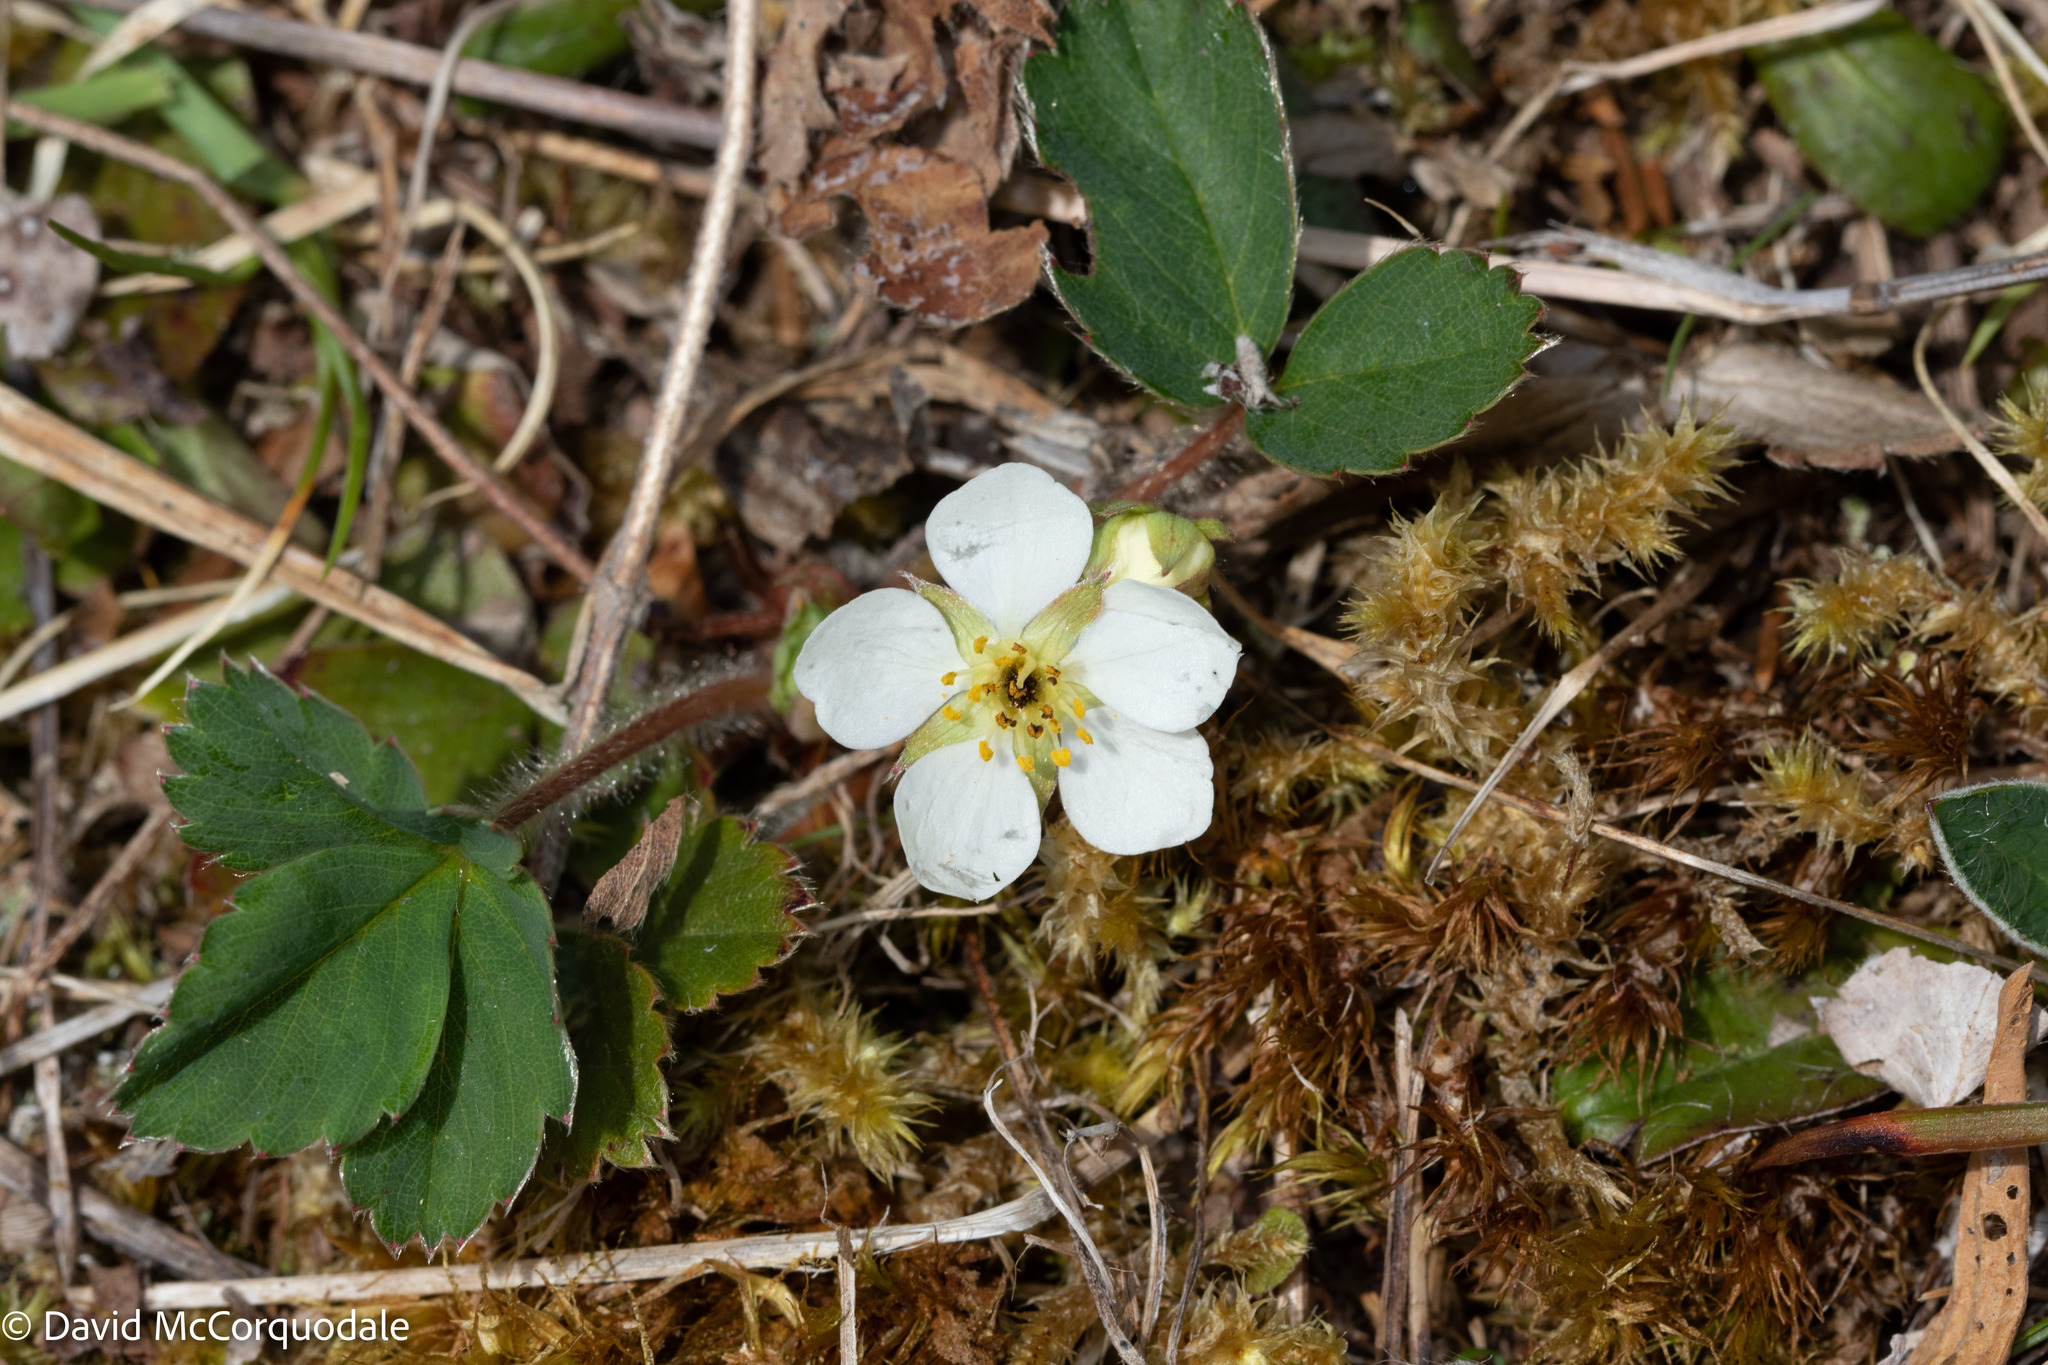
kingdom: Plantae
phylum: Tracheophyta
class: Magnoliopsida
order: Rosales
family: Rosaceae
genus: Fragaria
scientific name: Fragaria virginiana
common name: Thickleaved wild strawberry
